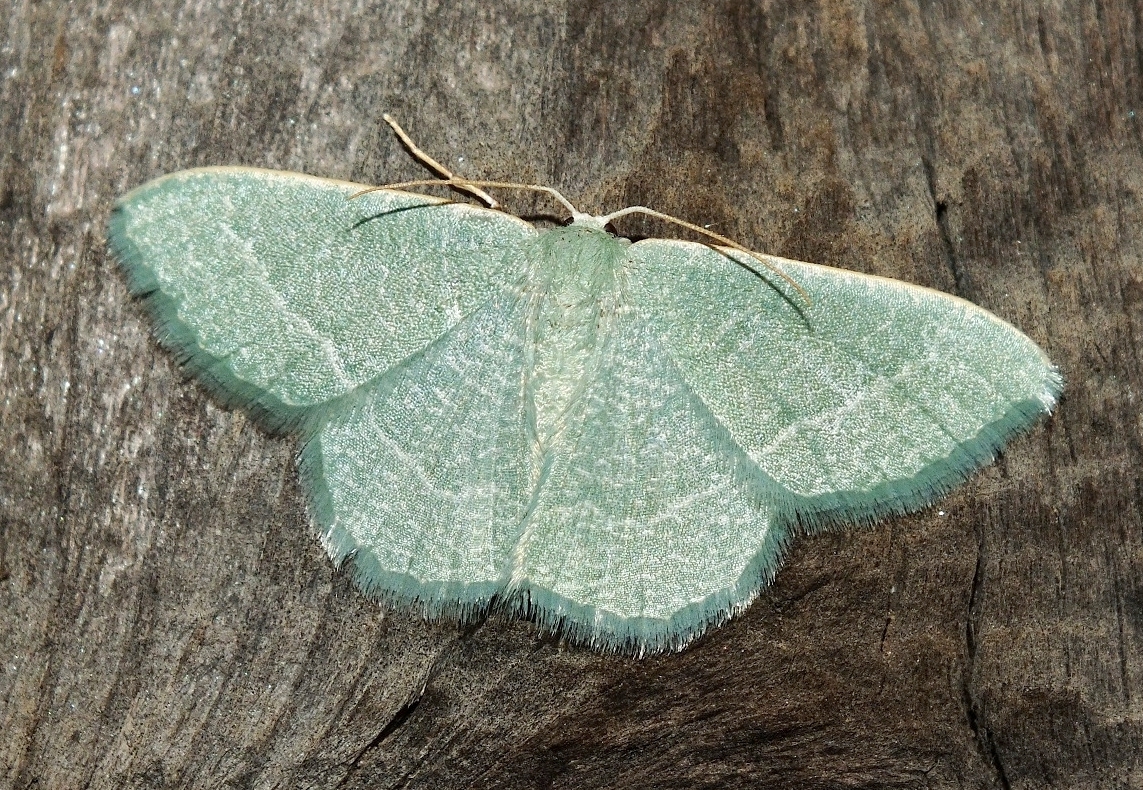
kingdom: Animalia
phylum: Arthropoda
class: Insecta
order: Lepidoptera
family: Geometridae
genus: Chlorissa
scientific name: Chlorissa etruscaria
